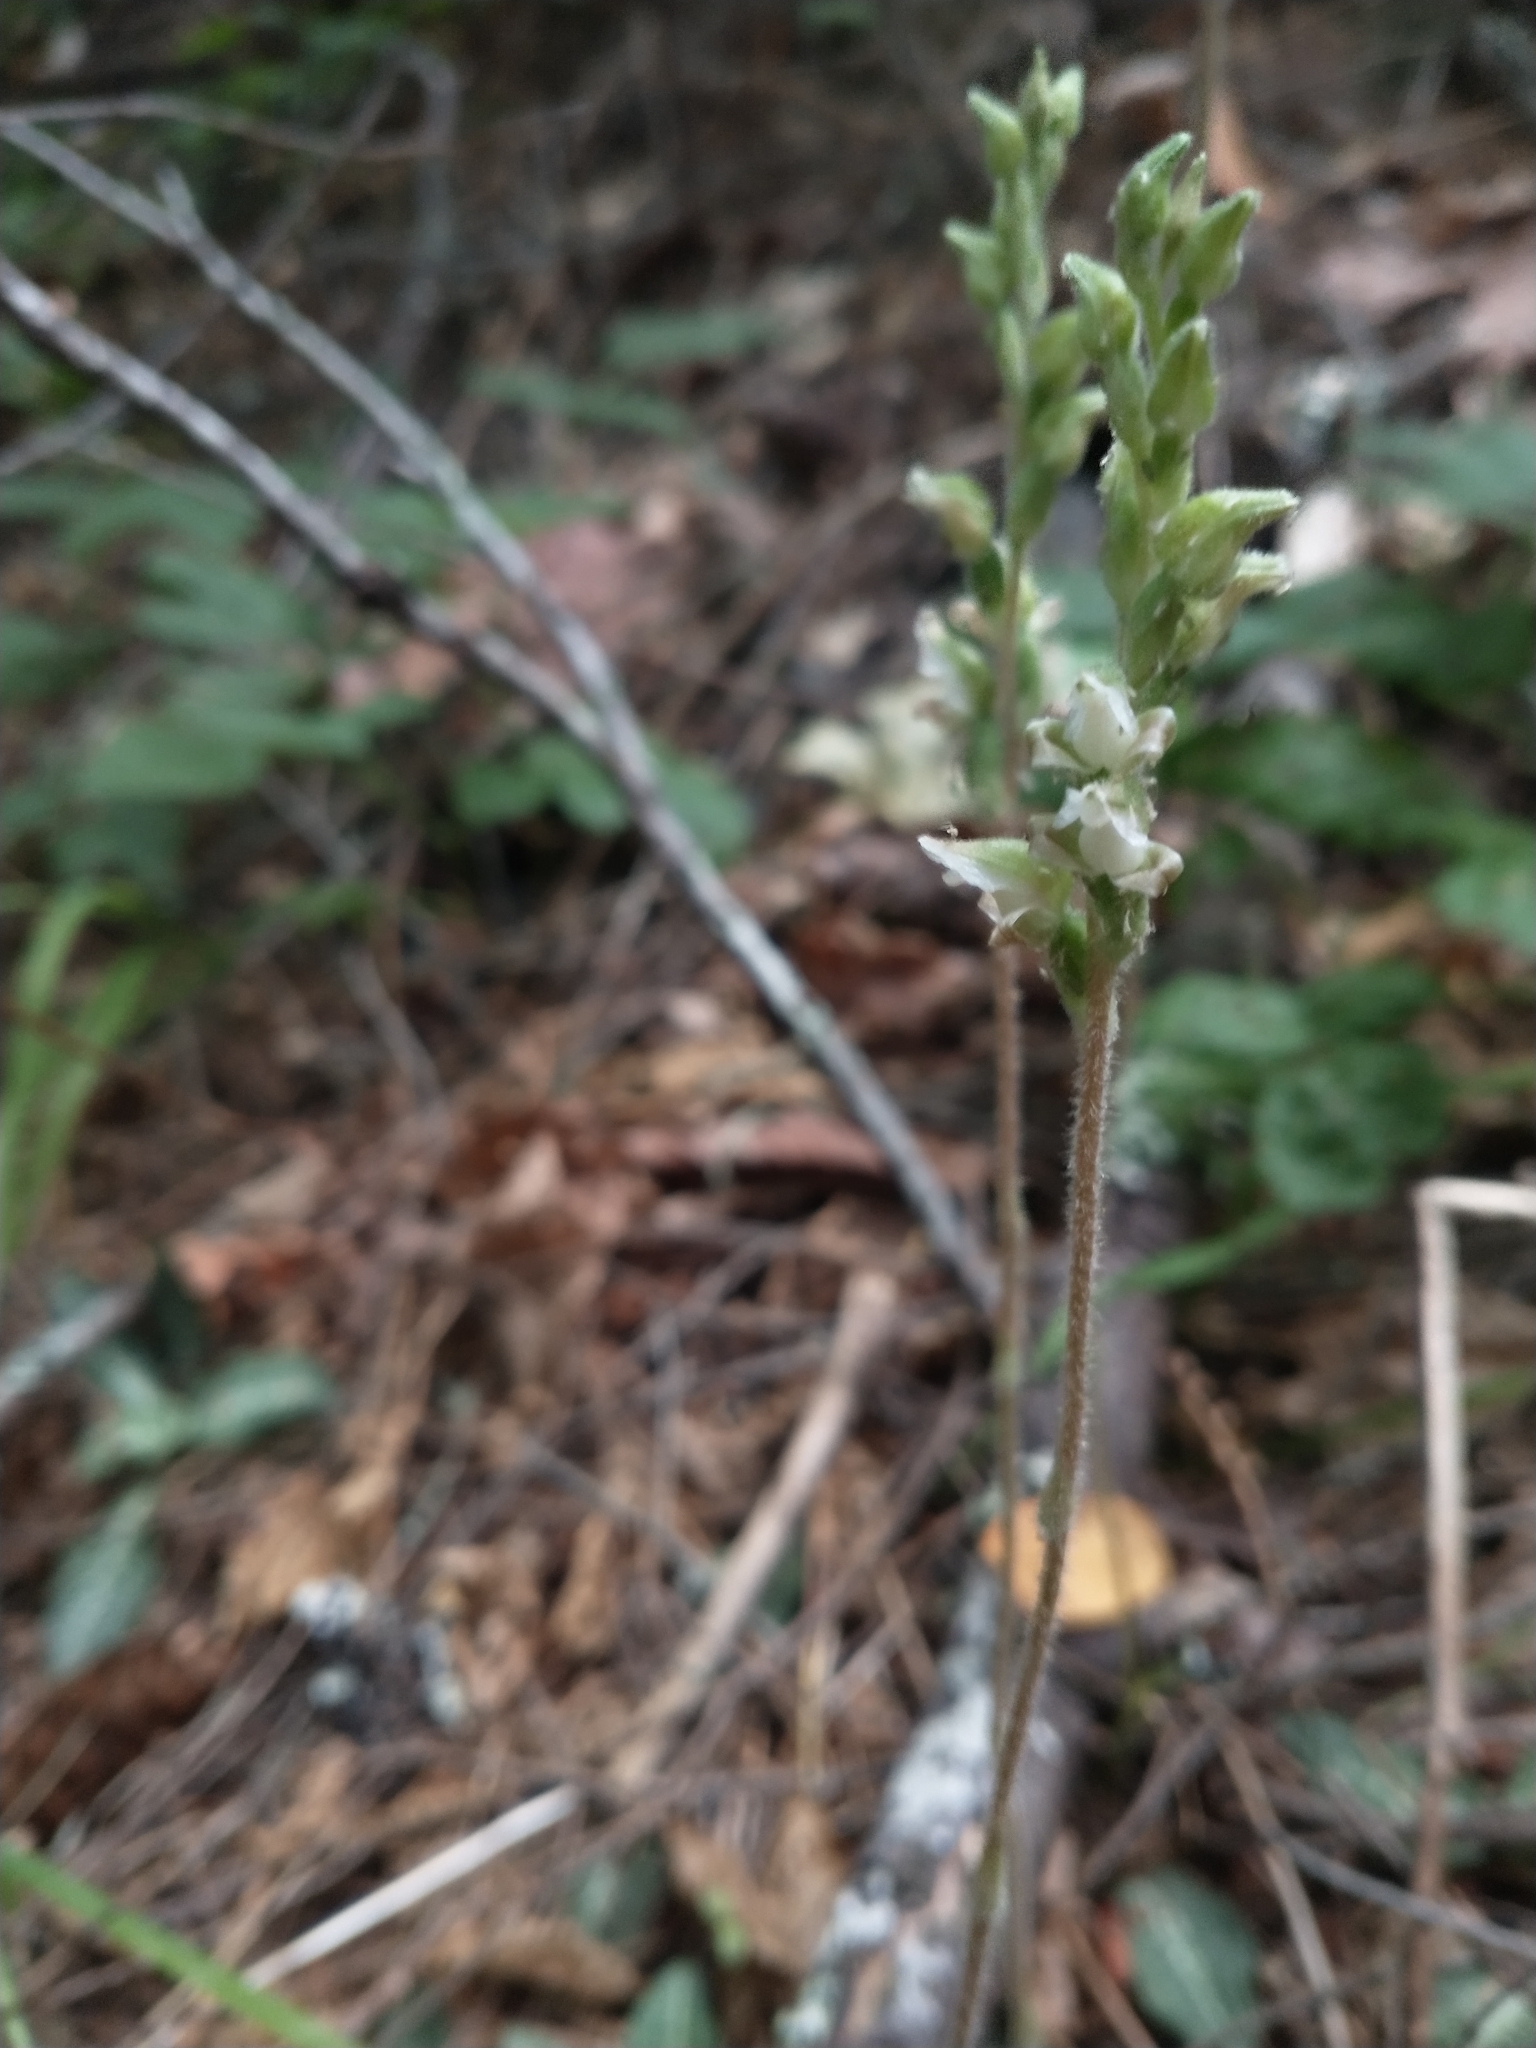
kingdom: Plantae
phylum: Tracheophyta
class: Liliopsida
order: Asparagales
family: Orchidaceae
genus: Goodyera
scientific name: Goodyera oblongifolia
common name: Giant rattlesnake-plantain
